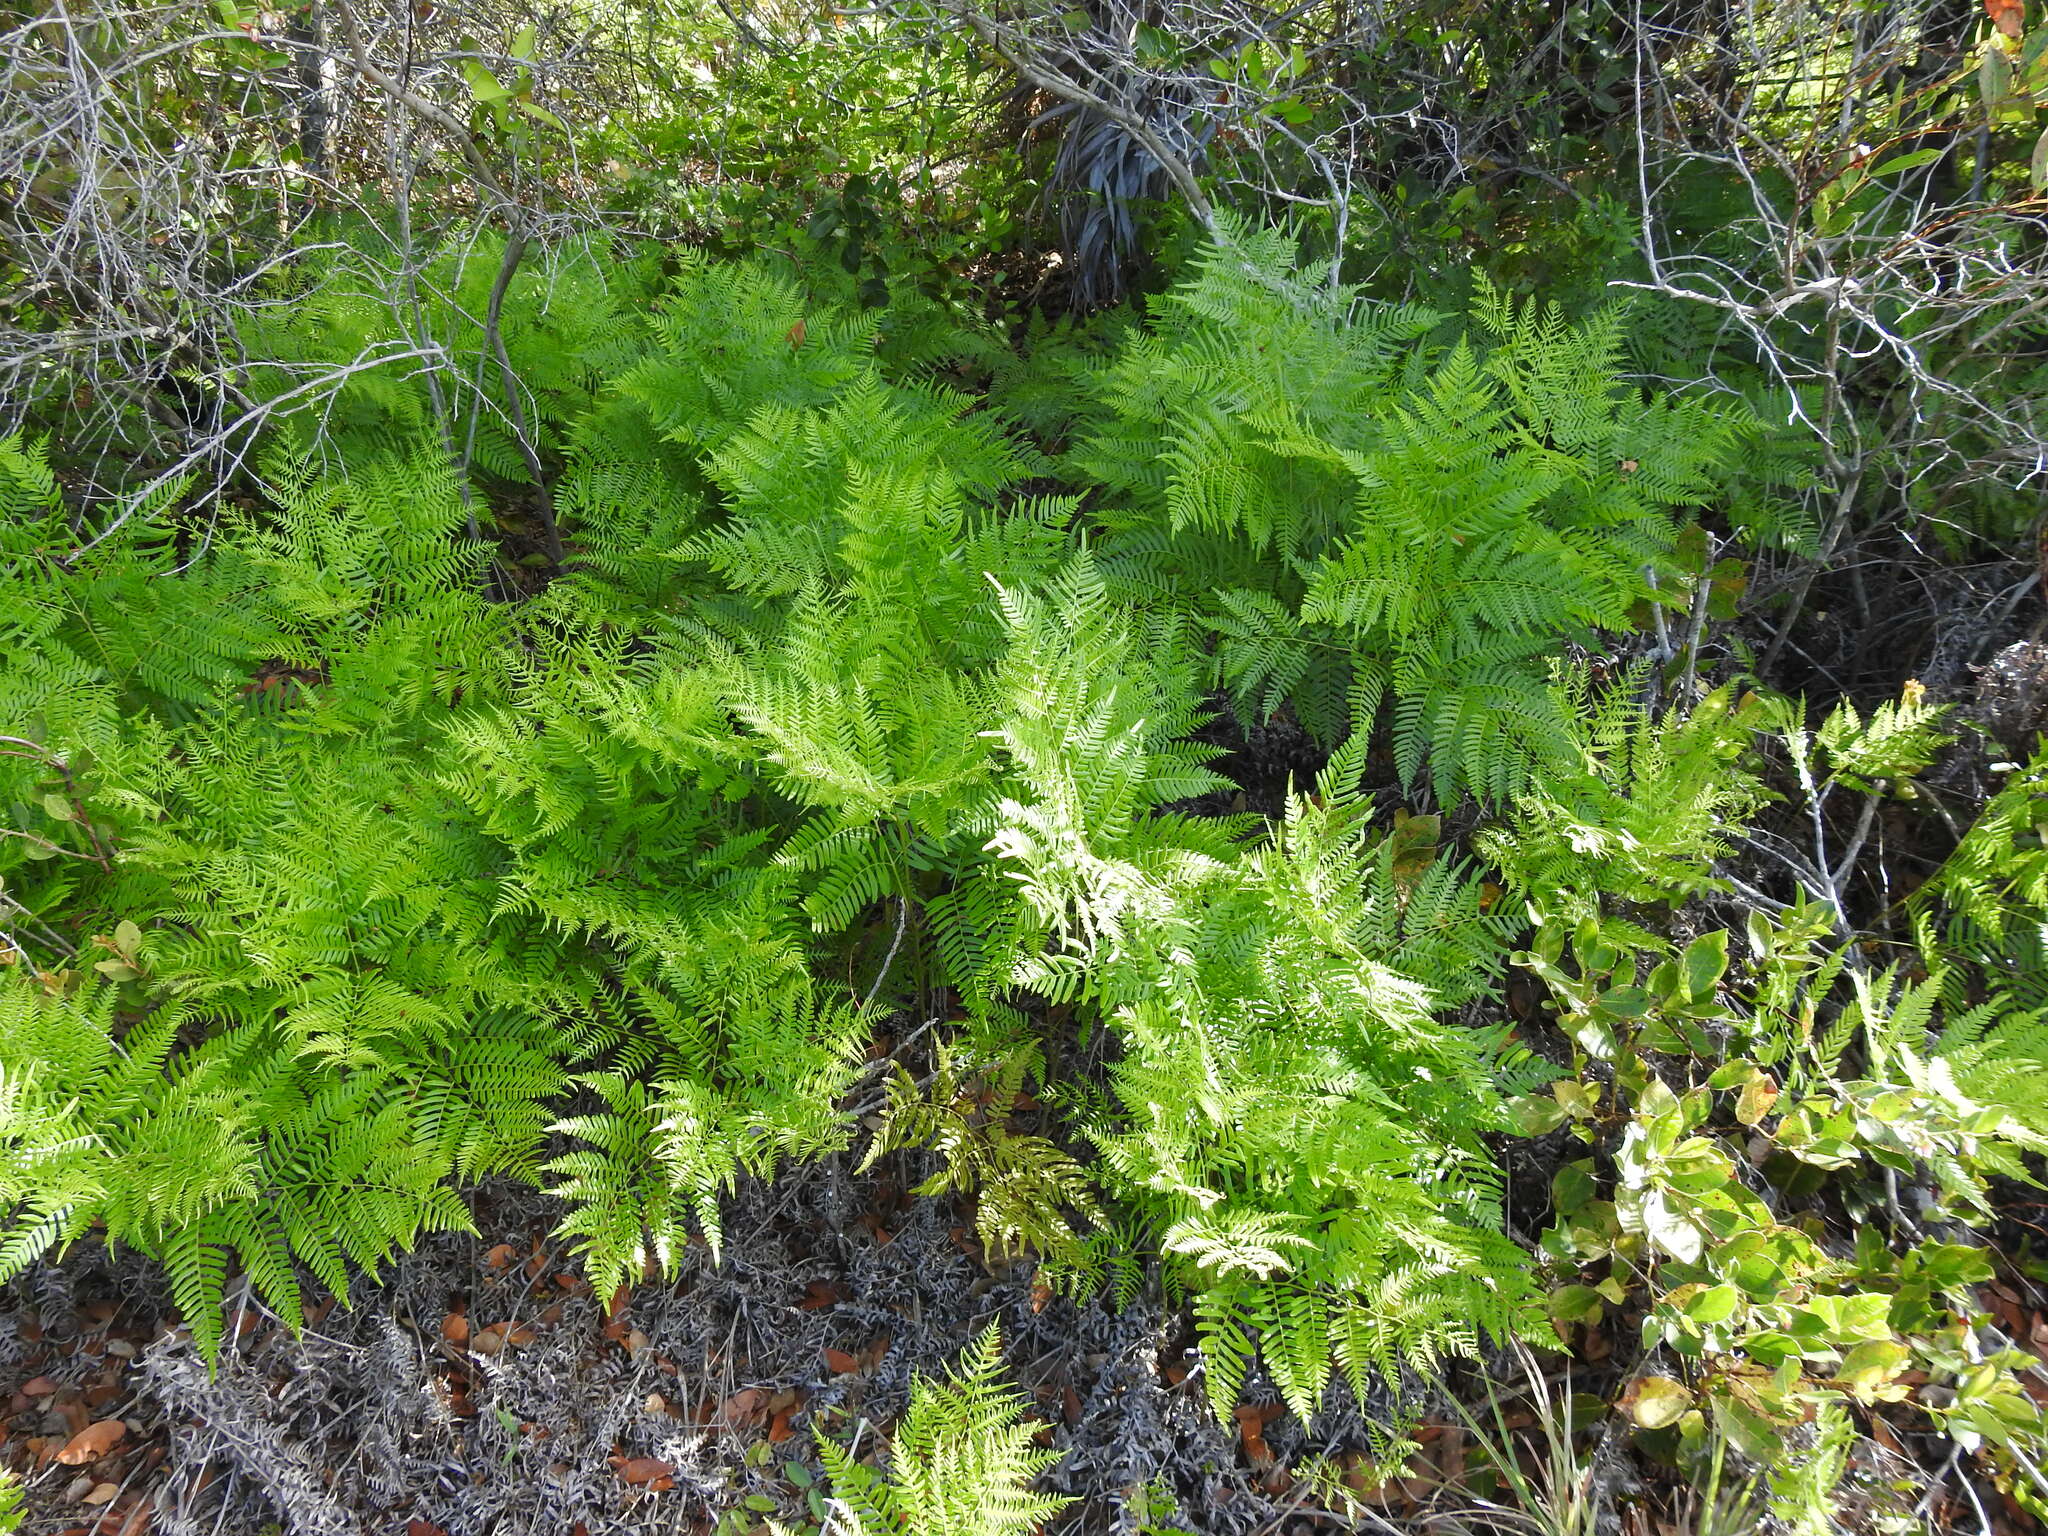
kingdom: Plantae
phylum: Tracheophyta
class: Polypodiopsida
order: Polypodiales
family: Dennstaedtiaceae
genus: Pteridium
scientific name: Pteridium aquilinum
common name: Bracken
